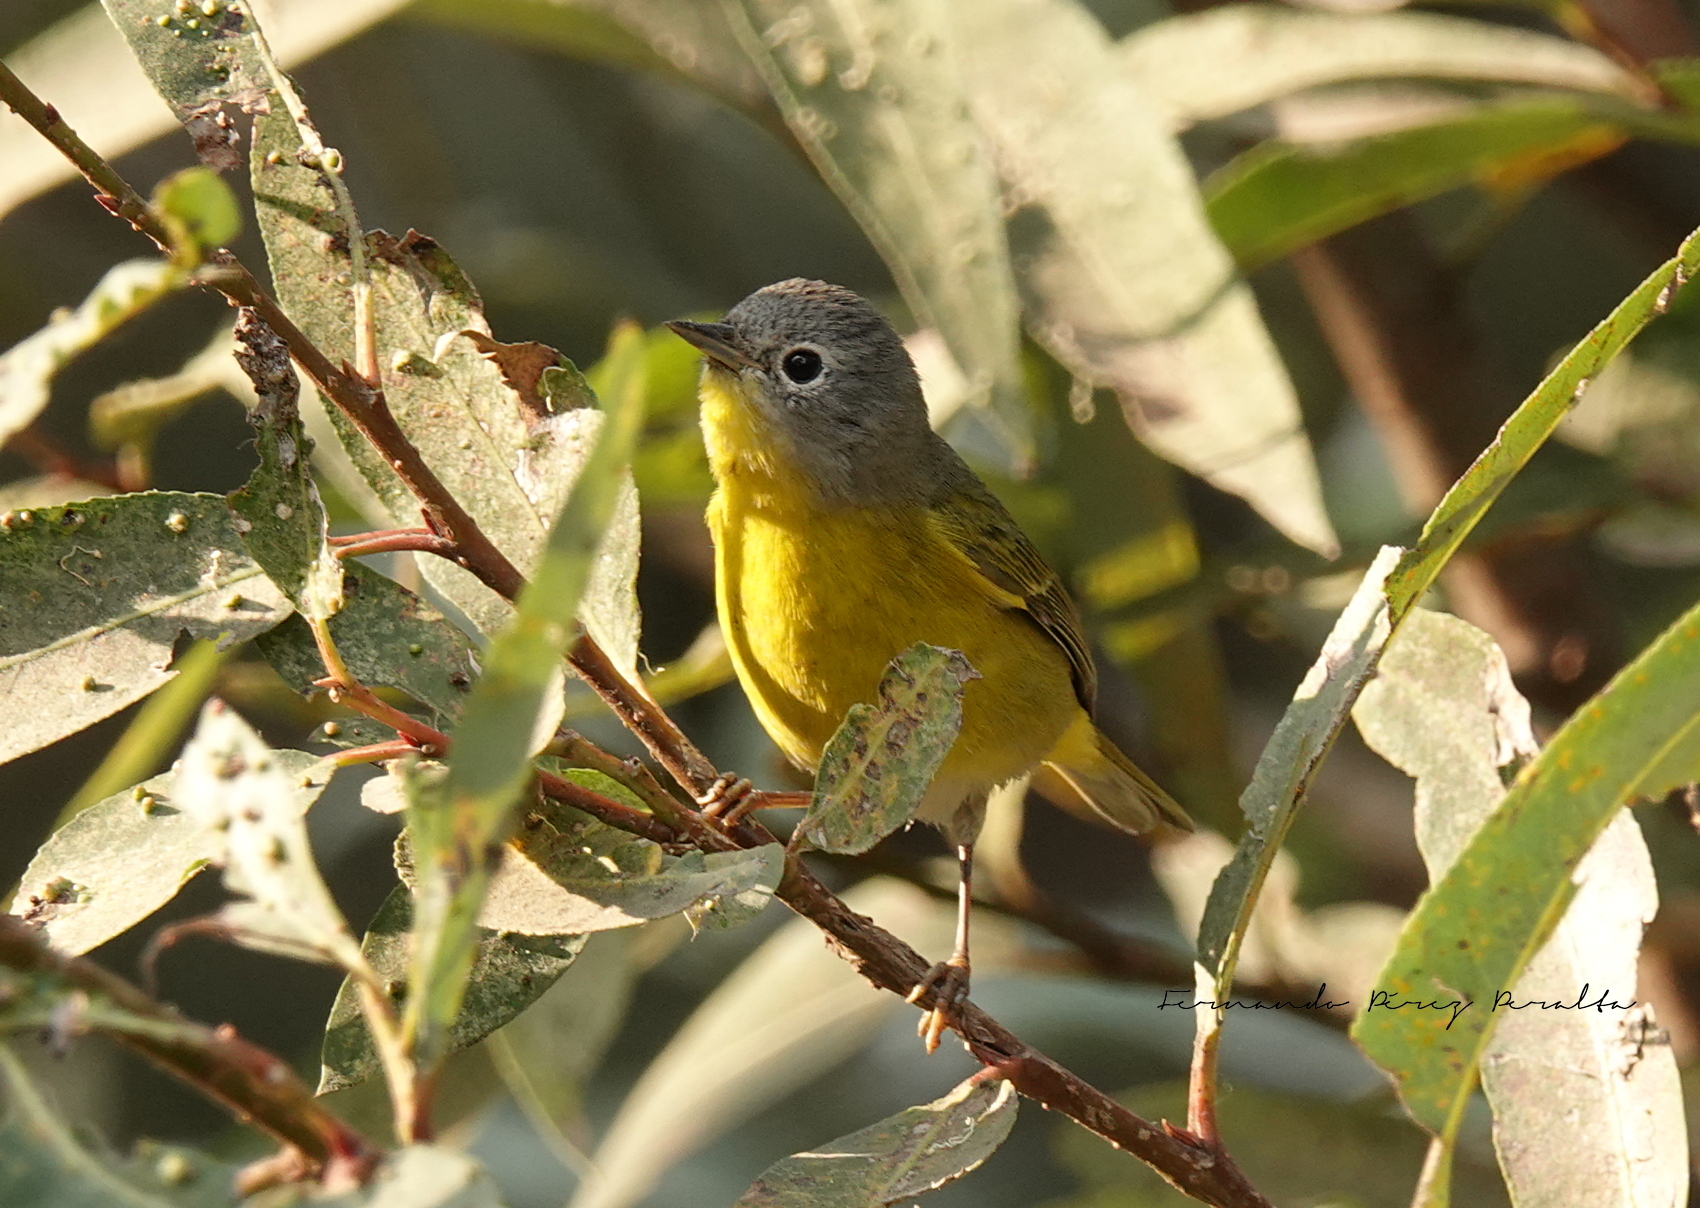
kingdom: Animalia
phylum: Chordata
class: Aves
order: Passeriformes
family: Parulidae
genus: Leiothlypis
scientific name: Leiothlypis ruficapilla
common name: Nashville warbler
